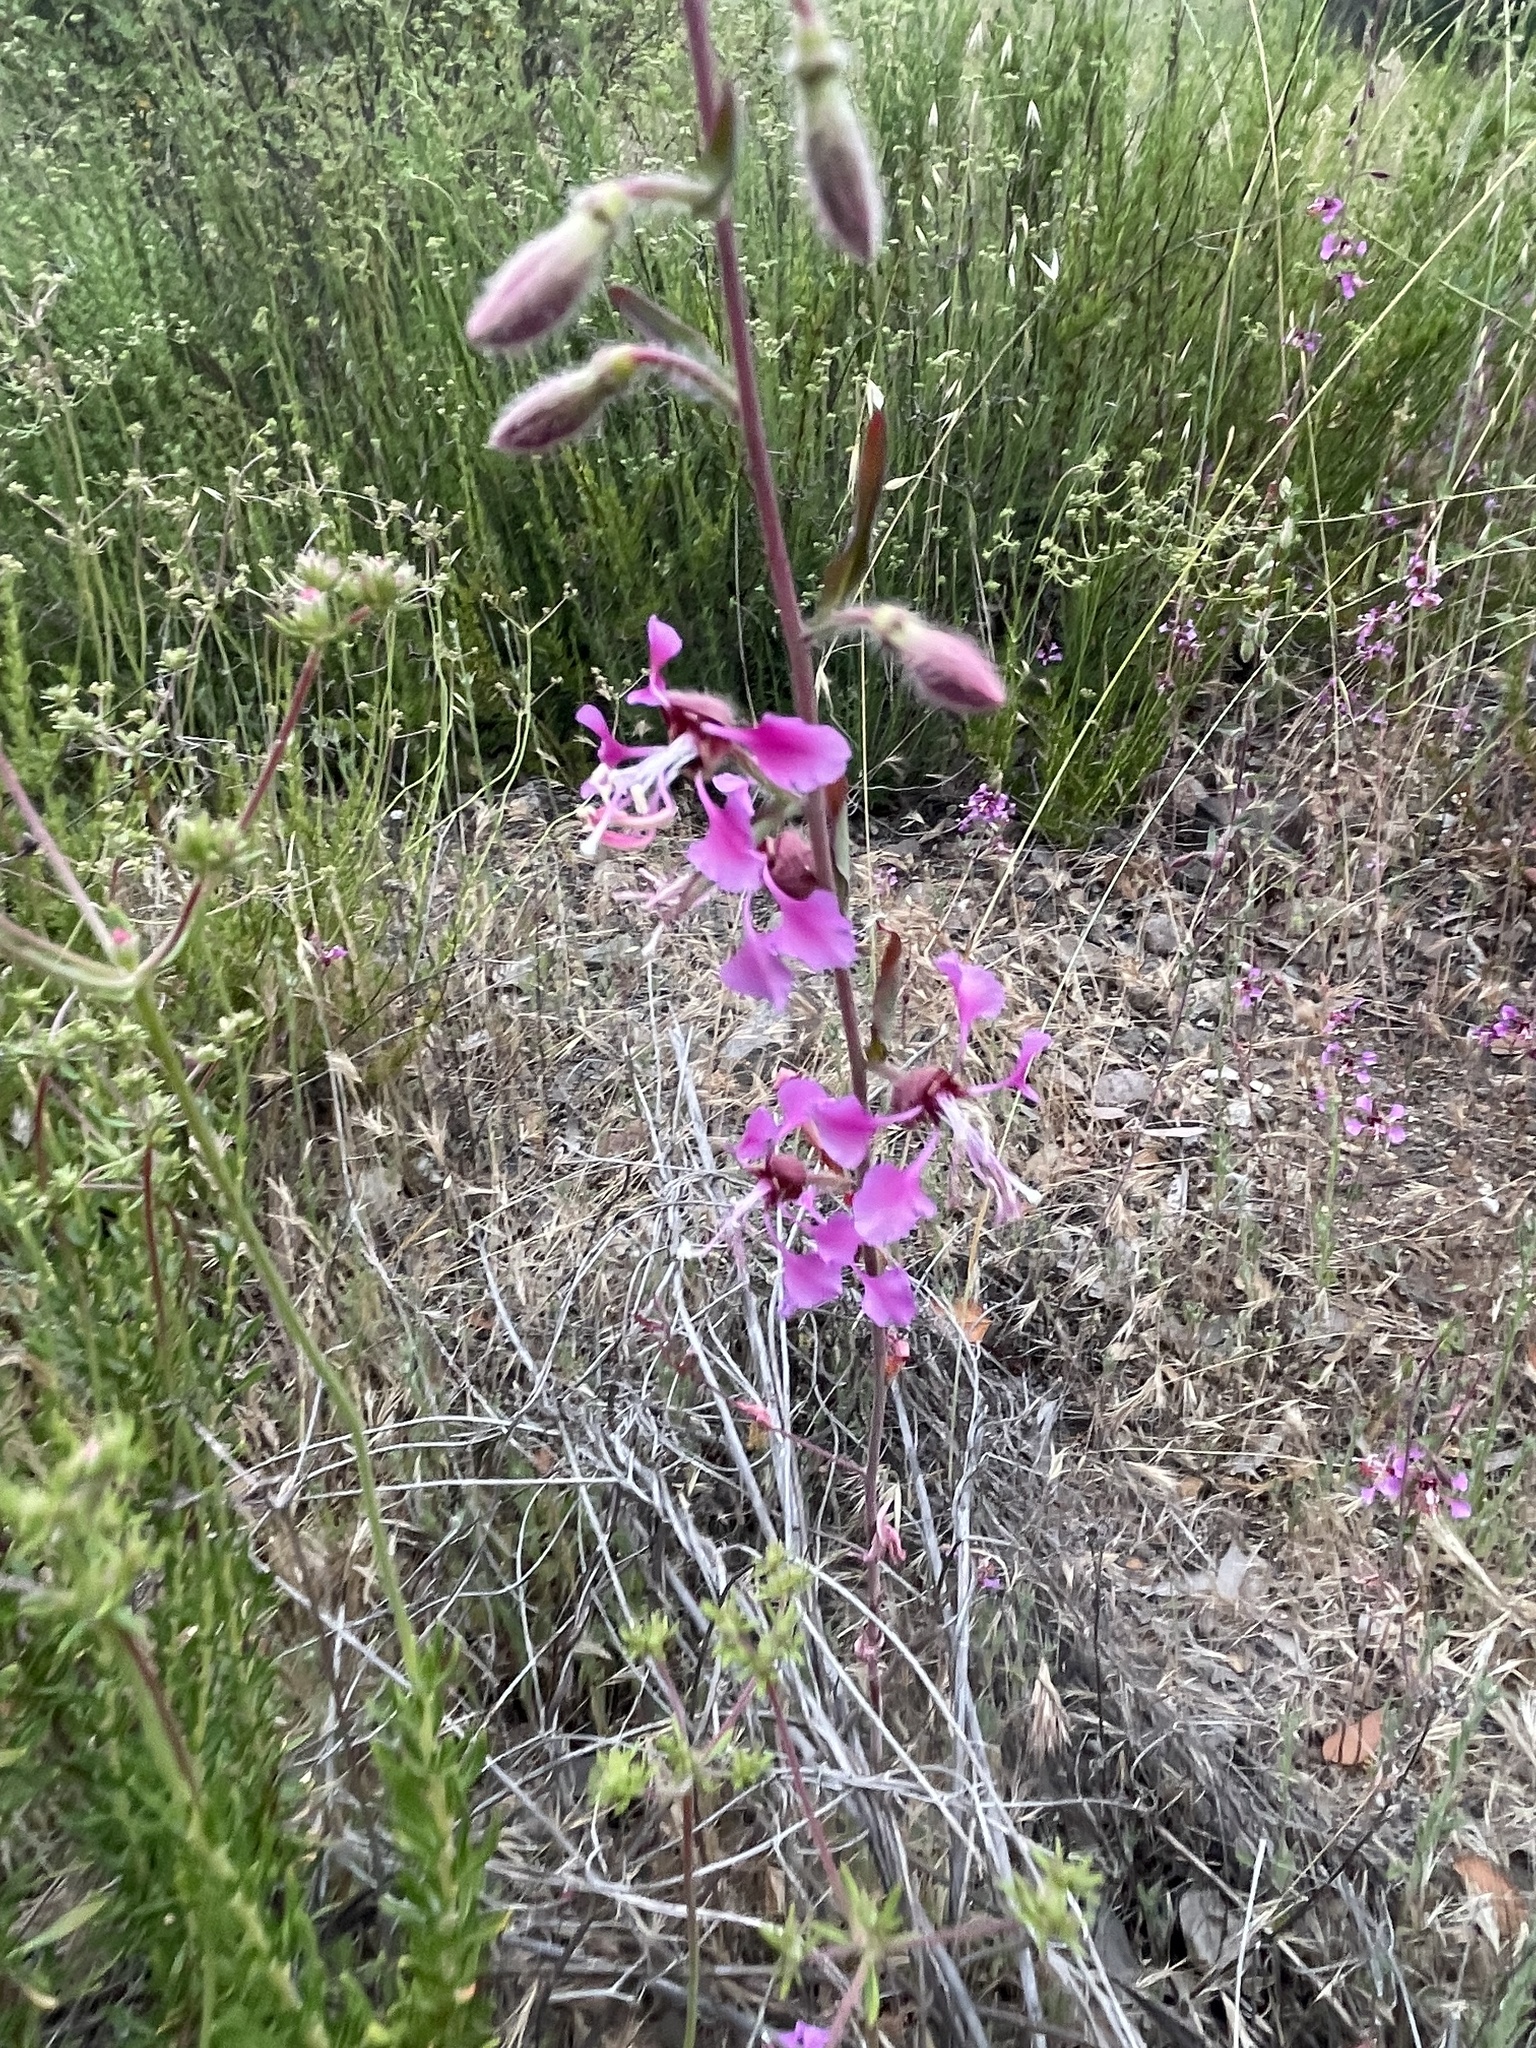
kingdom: Plantae
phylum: Tracheophyta
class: Magnoliopsida
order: Myrtales
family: Onagraceae
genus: Clarkia
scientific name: Clarkia unguiculata
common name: Clarkia
